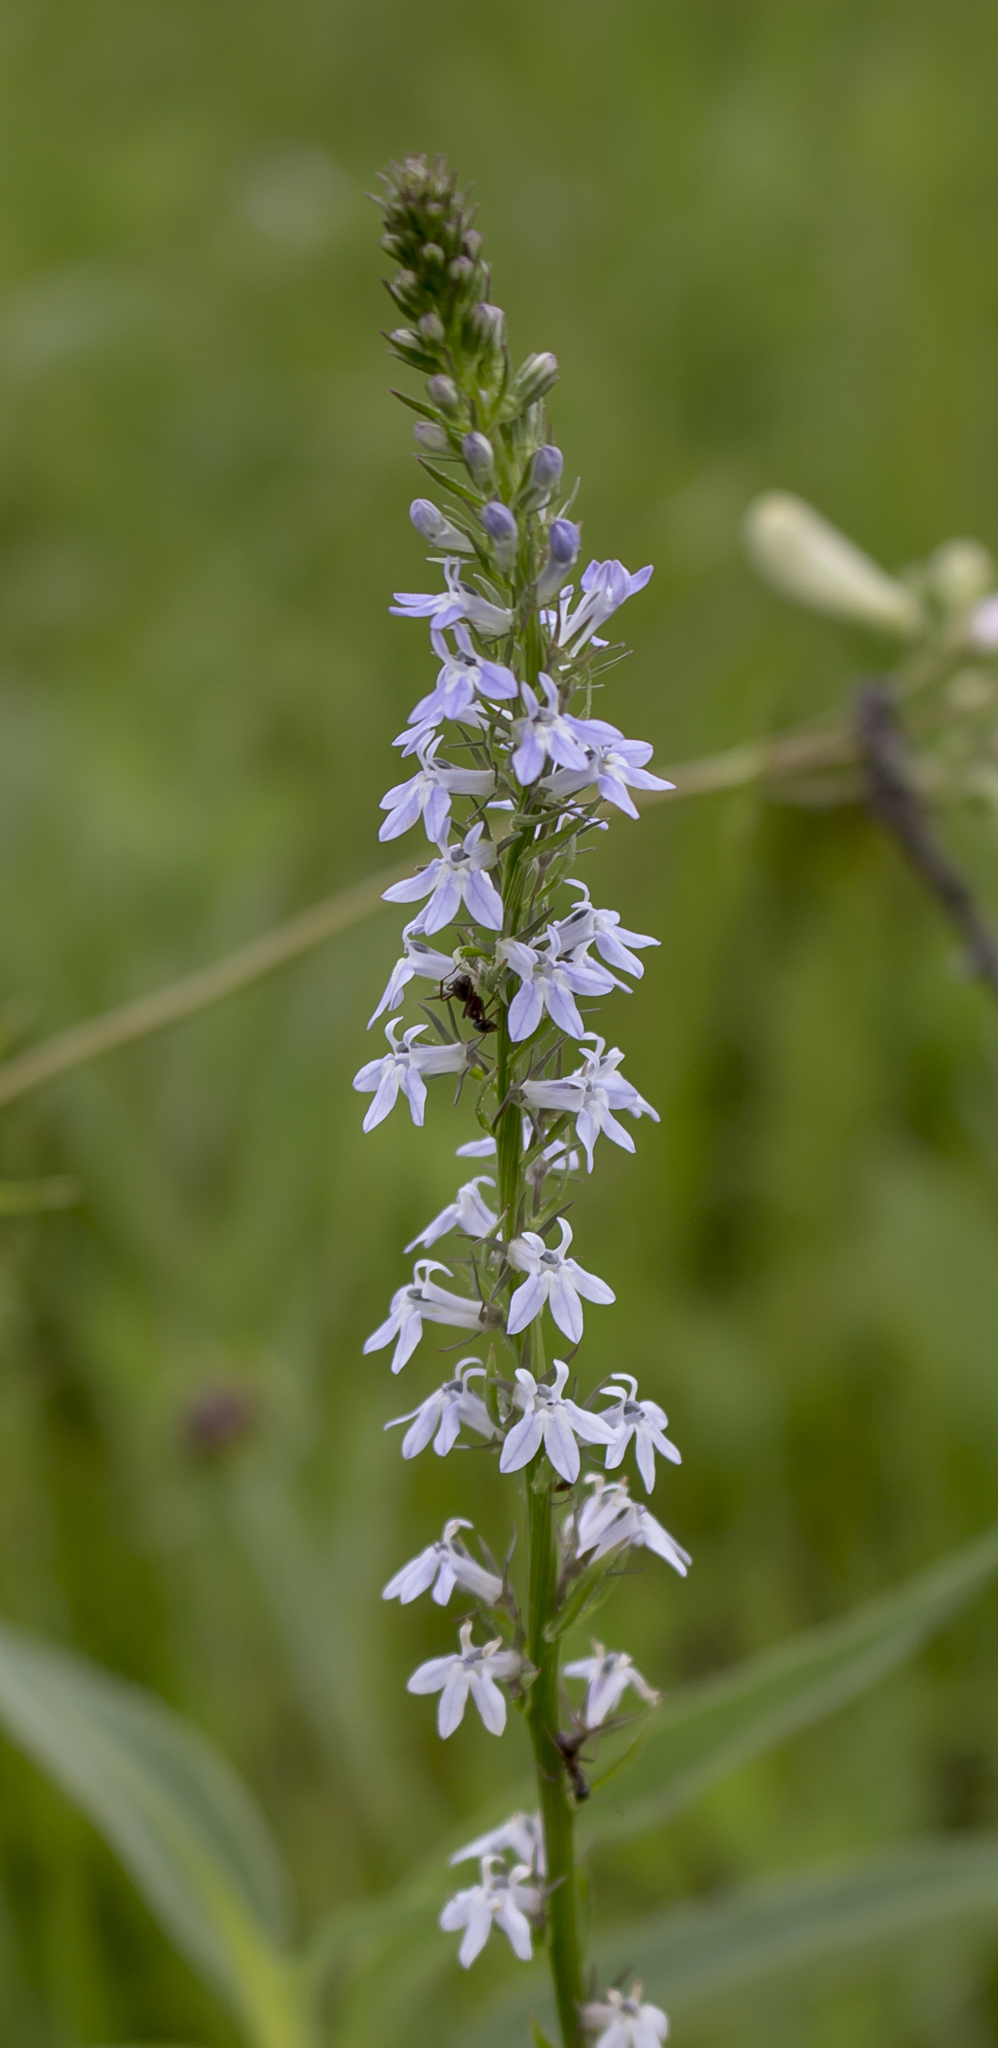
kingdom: Plantae
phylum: Tracheophyta
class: Magnoliopsida
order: Asterales
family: Campanulaceae
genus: Lobelia
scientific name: Lobelia spicata
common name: Pale-spike lobelia
